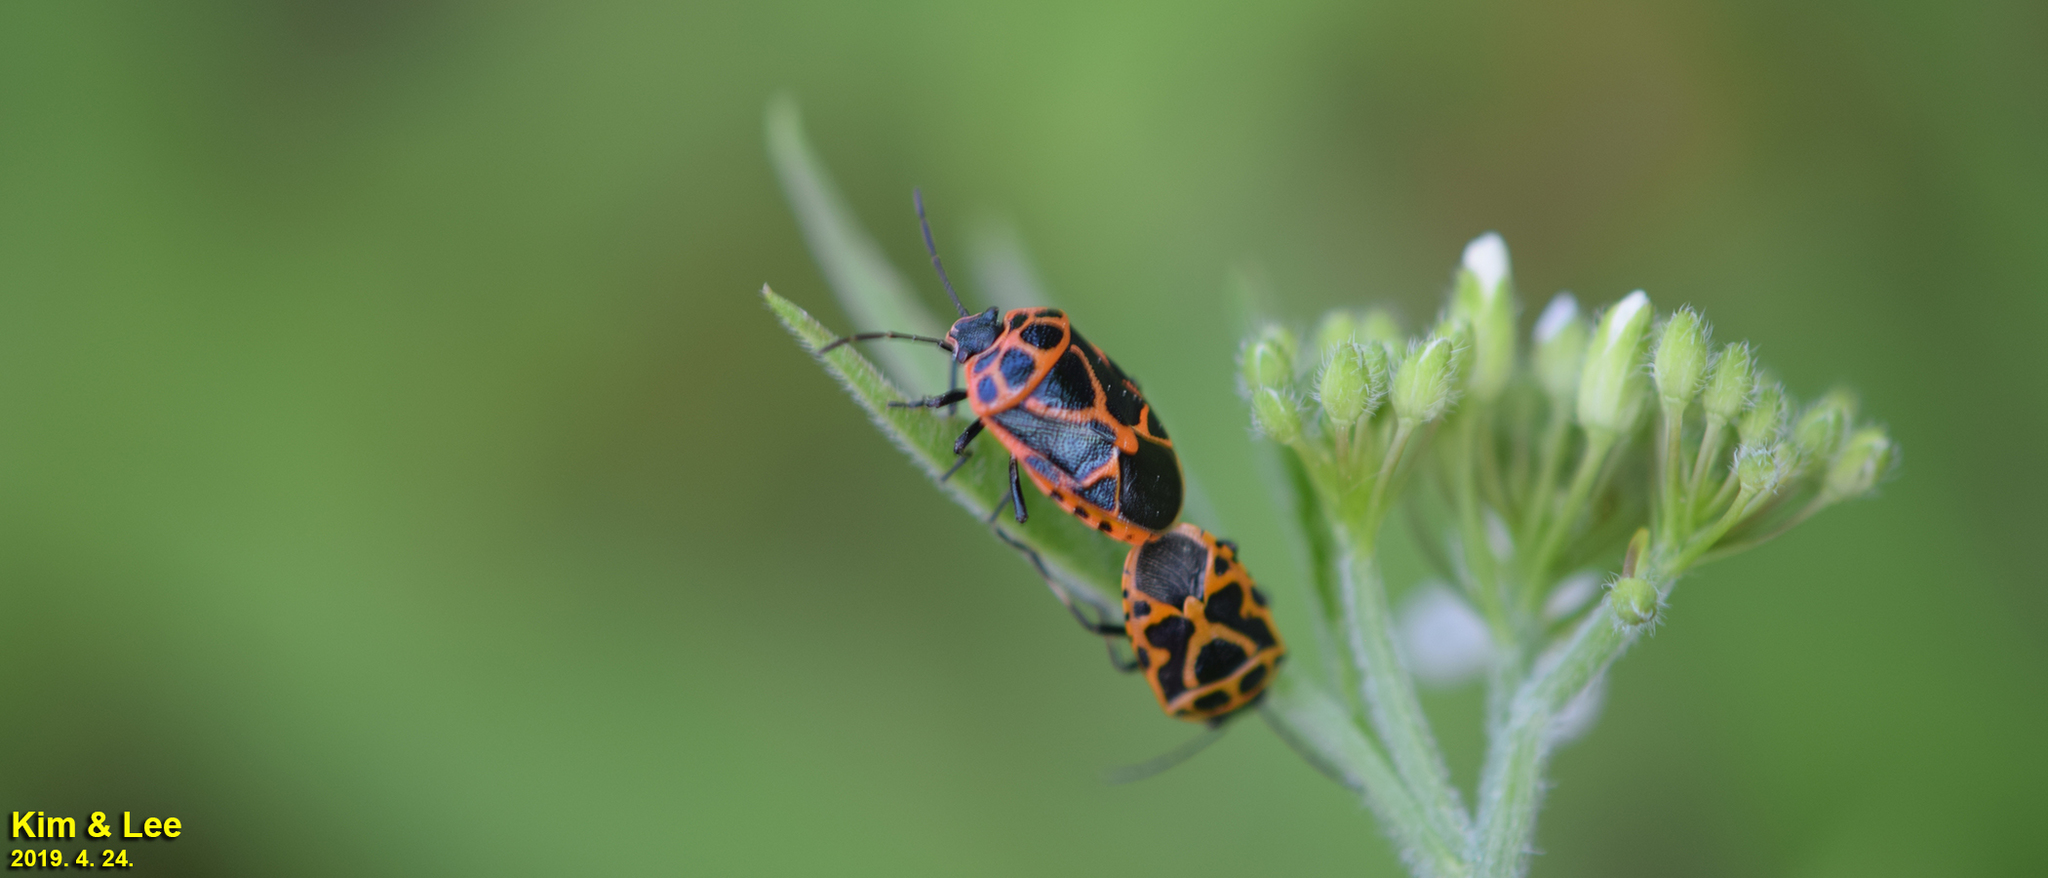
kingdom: Animalia
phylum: Arthropoda
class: Insecta
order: Hemiptera
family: Pentatomidae
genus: Eurydema
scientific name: Eurydema dominulus
